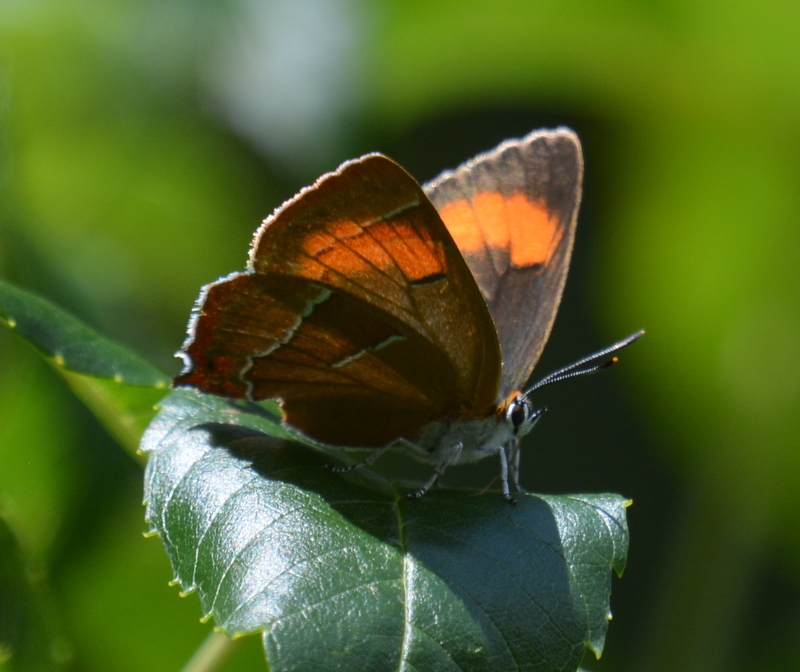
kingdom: Animalia
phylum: Arthropoda
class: Insecta
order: Lepidoptera
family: Lycaenidae
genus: Thecla
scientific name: Thecla betulae
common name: Brown hairstreak
